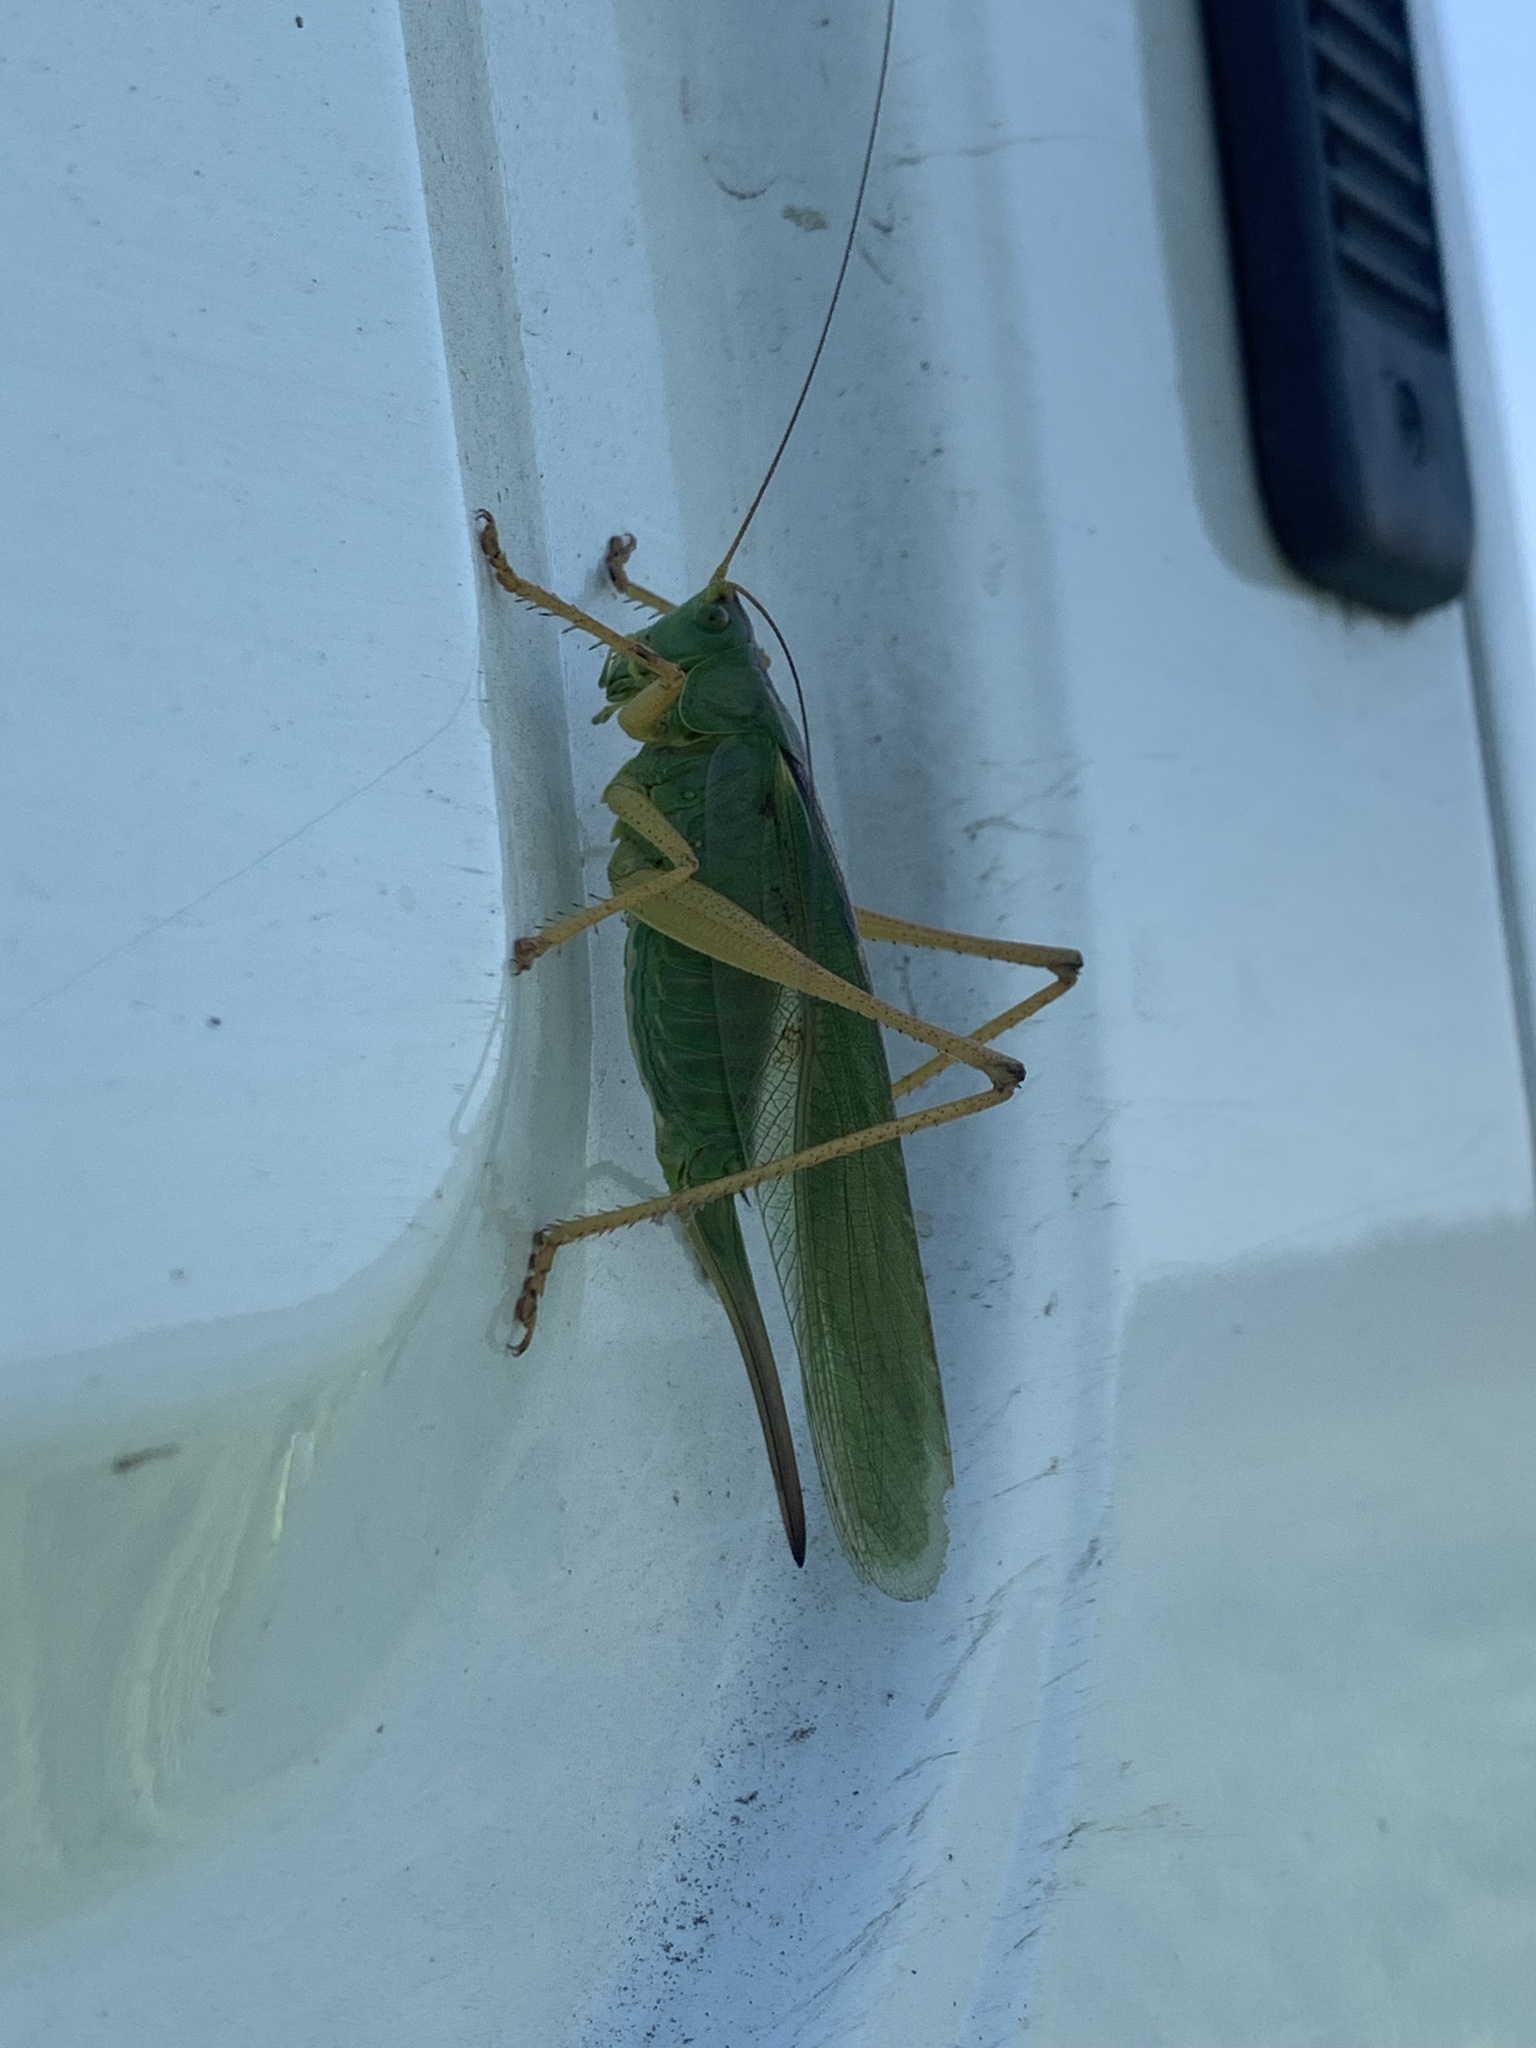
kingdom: Animalia
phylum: Arthropoda
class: Insecta
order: Orthoptera
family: Tettigoniidae
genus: Tettigonia
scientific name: Tettigonia viridissima
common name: Great green bush-cricket
